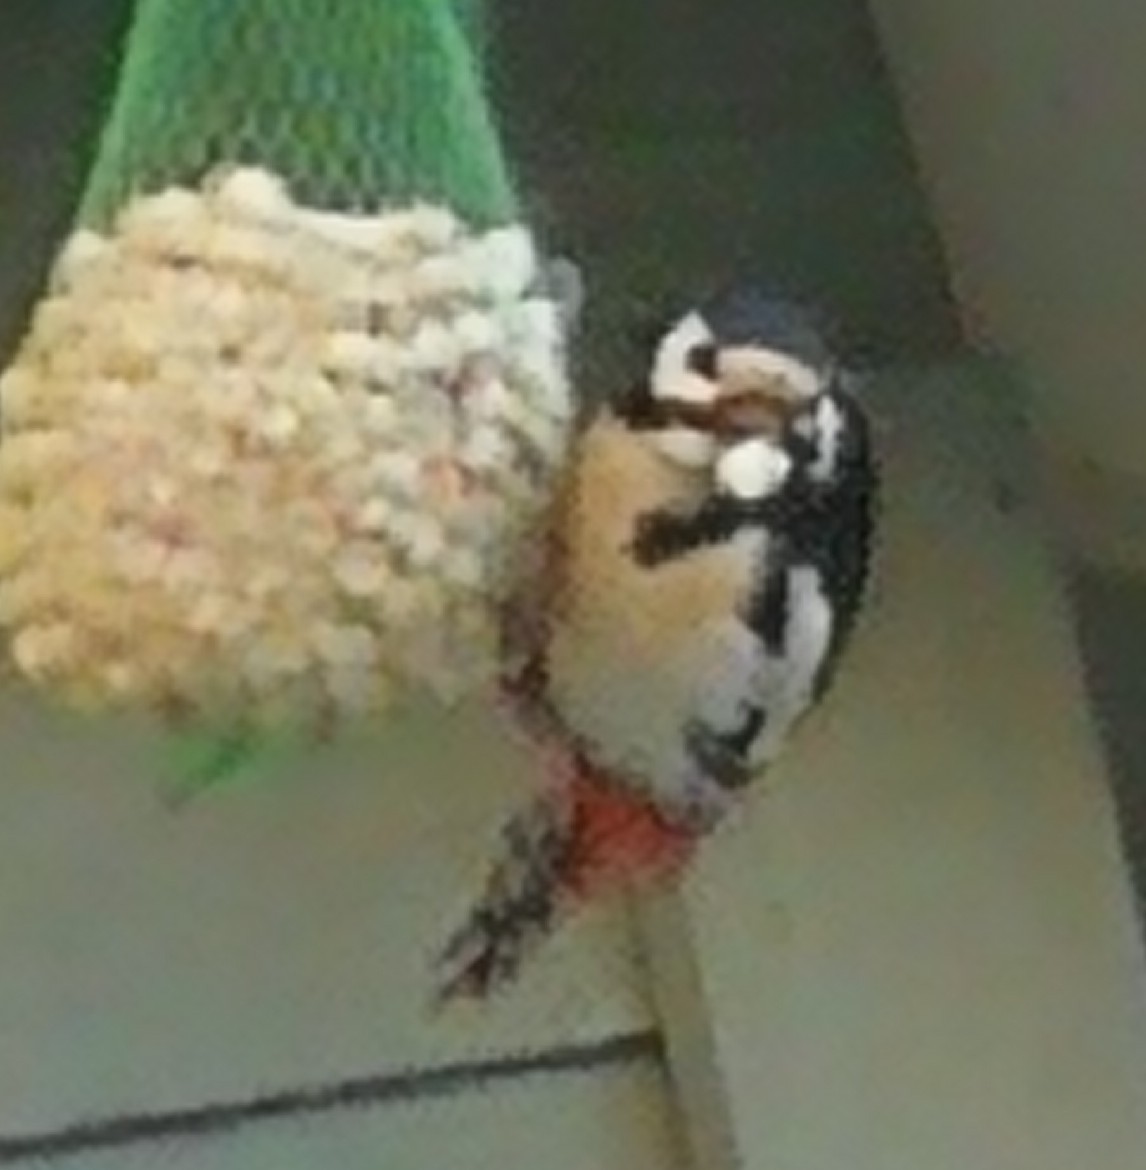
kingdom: Animalia
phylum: Chordata
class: Aves
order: Piciformes
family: Picidae
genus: Dendrocopos
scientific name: Dendrocopos major
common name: Great spotted woodpecker
